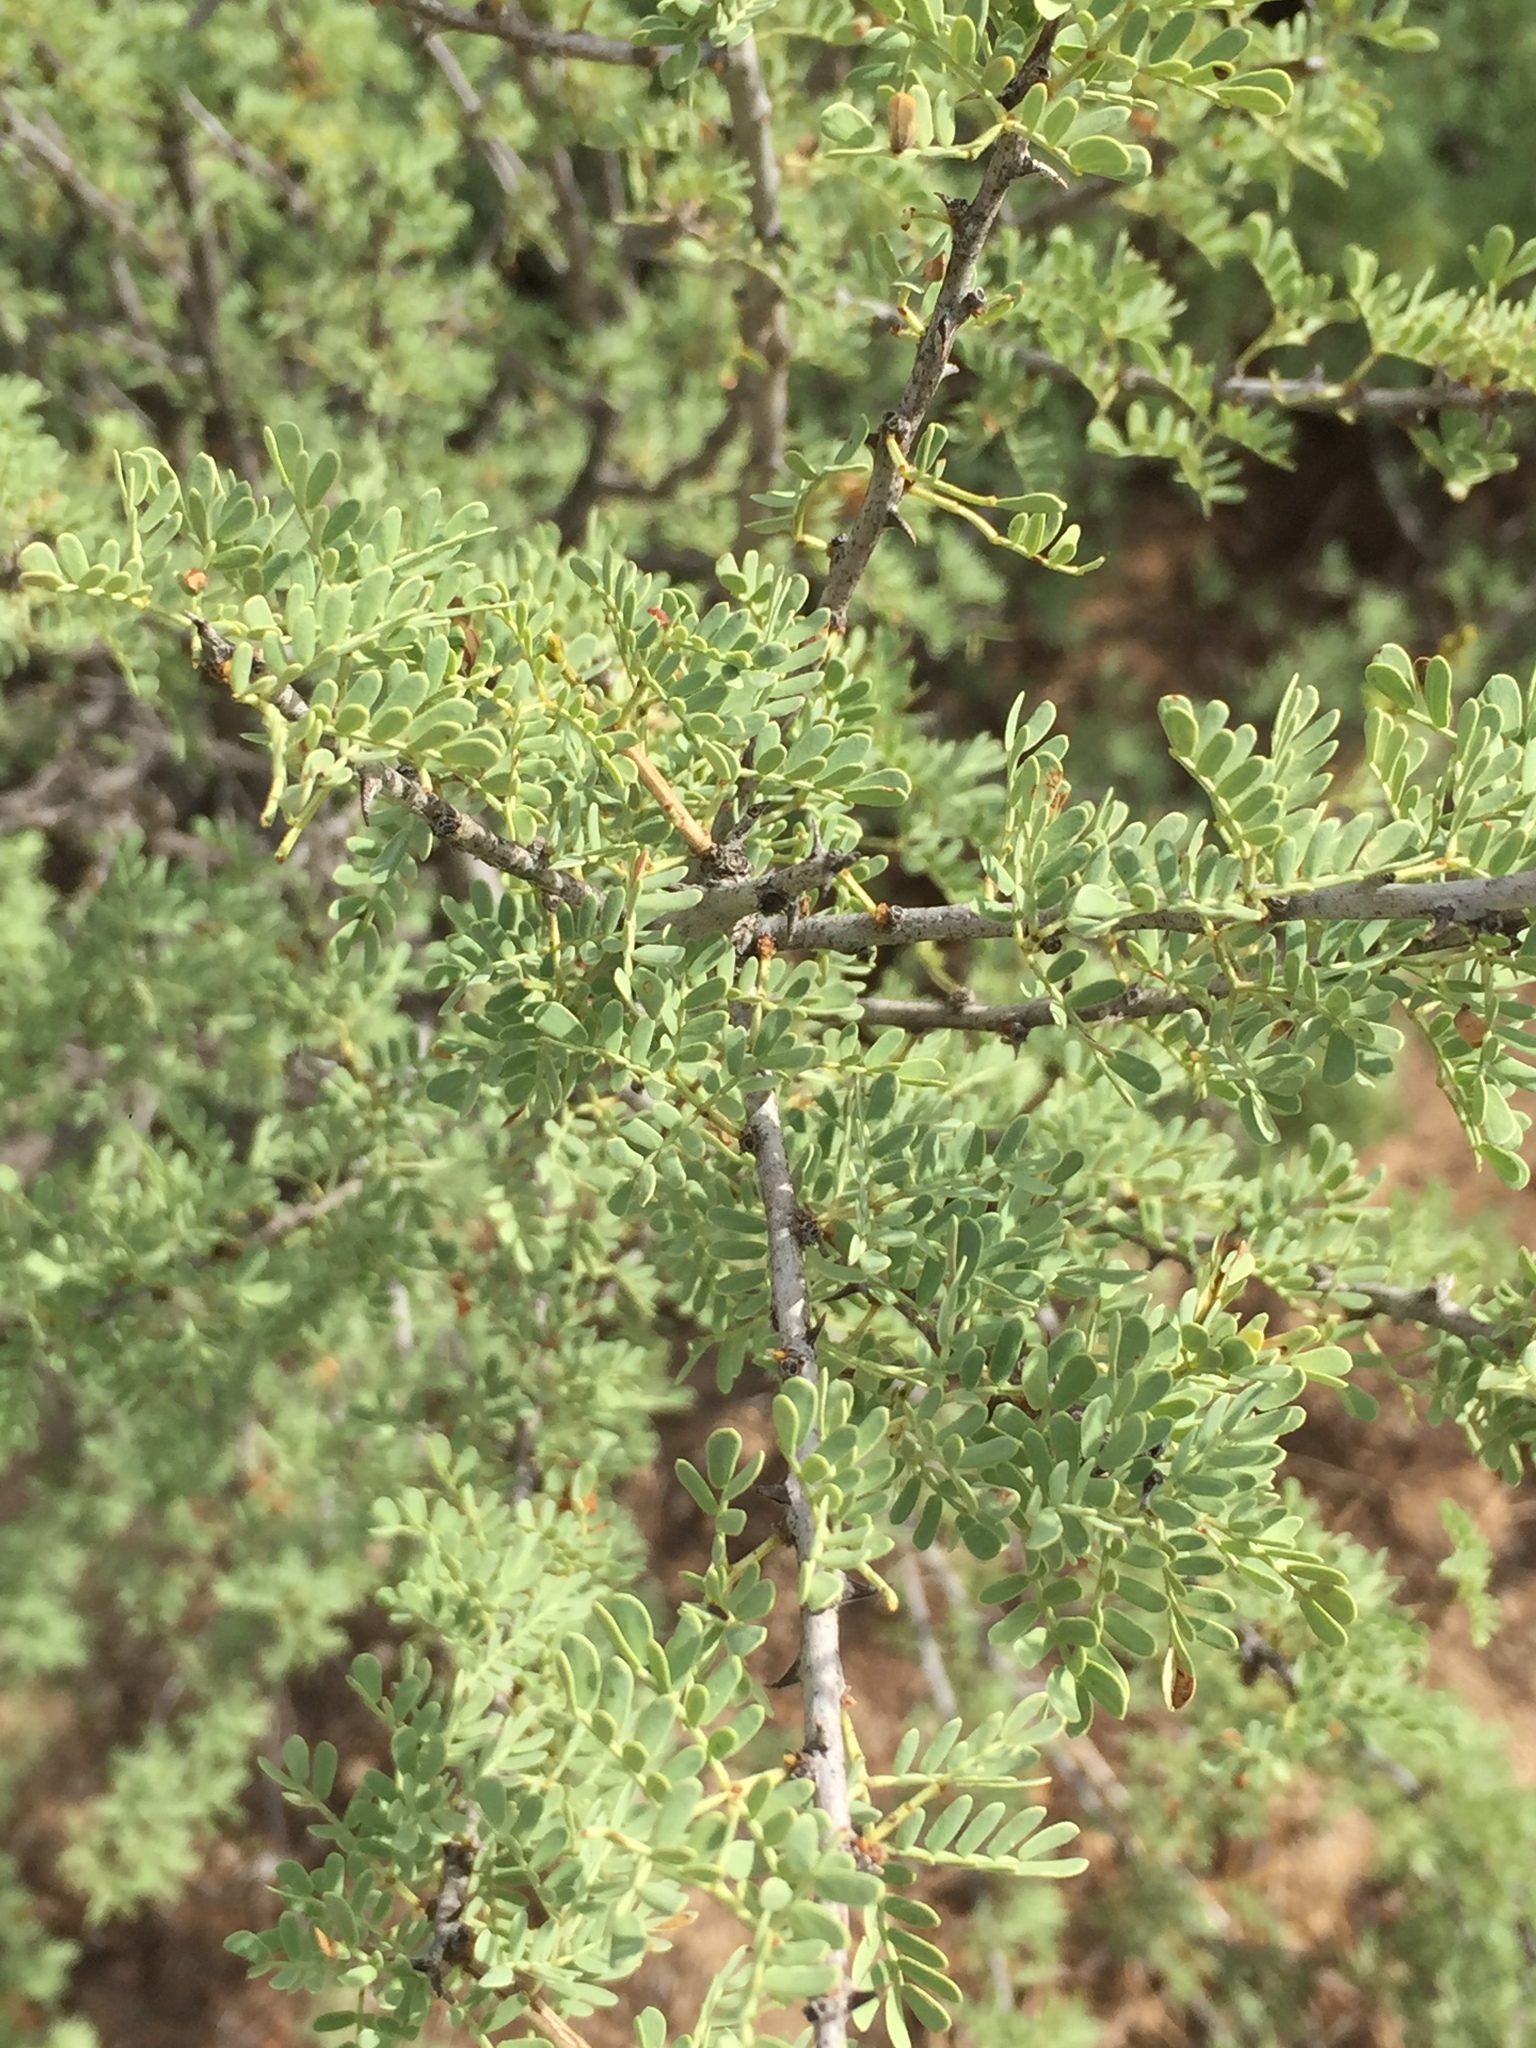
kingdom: Plantae
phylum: Tracheophyta
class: Magnoliopsida
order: Fabales
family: Fabaceae
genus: Senegalia
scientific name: Senegalia greggii
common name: Texas-mimosa
